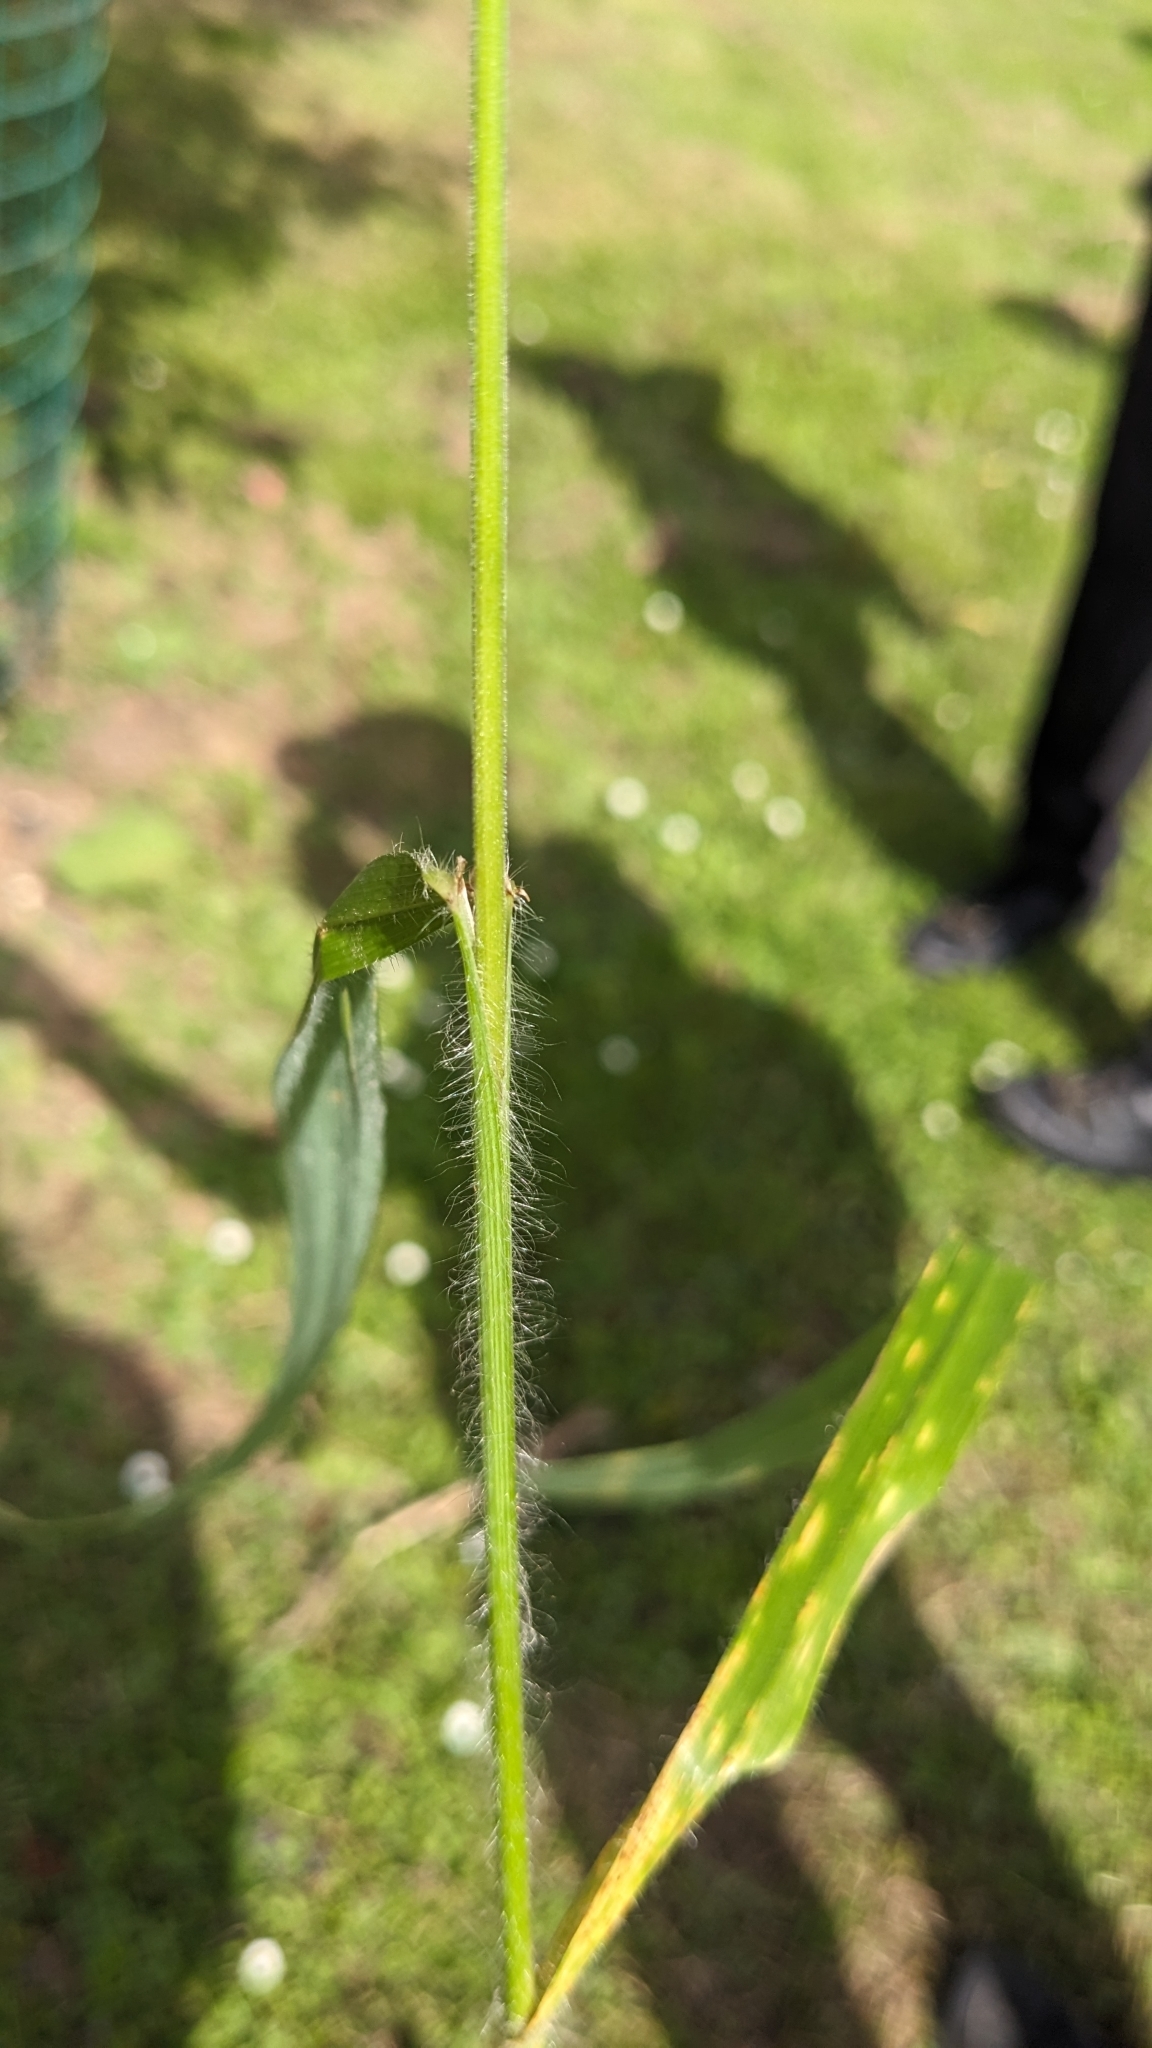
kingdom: Plantae
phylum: Tracheophyta
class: Liliopsida
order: Poales
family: Poaceae
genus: Bromus
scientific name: Bromus ramosus
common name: Hairy brome
